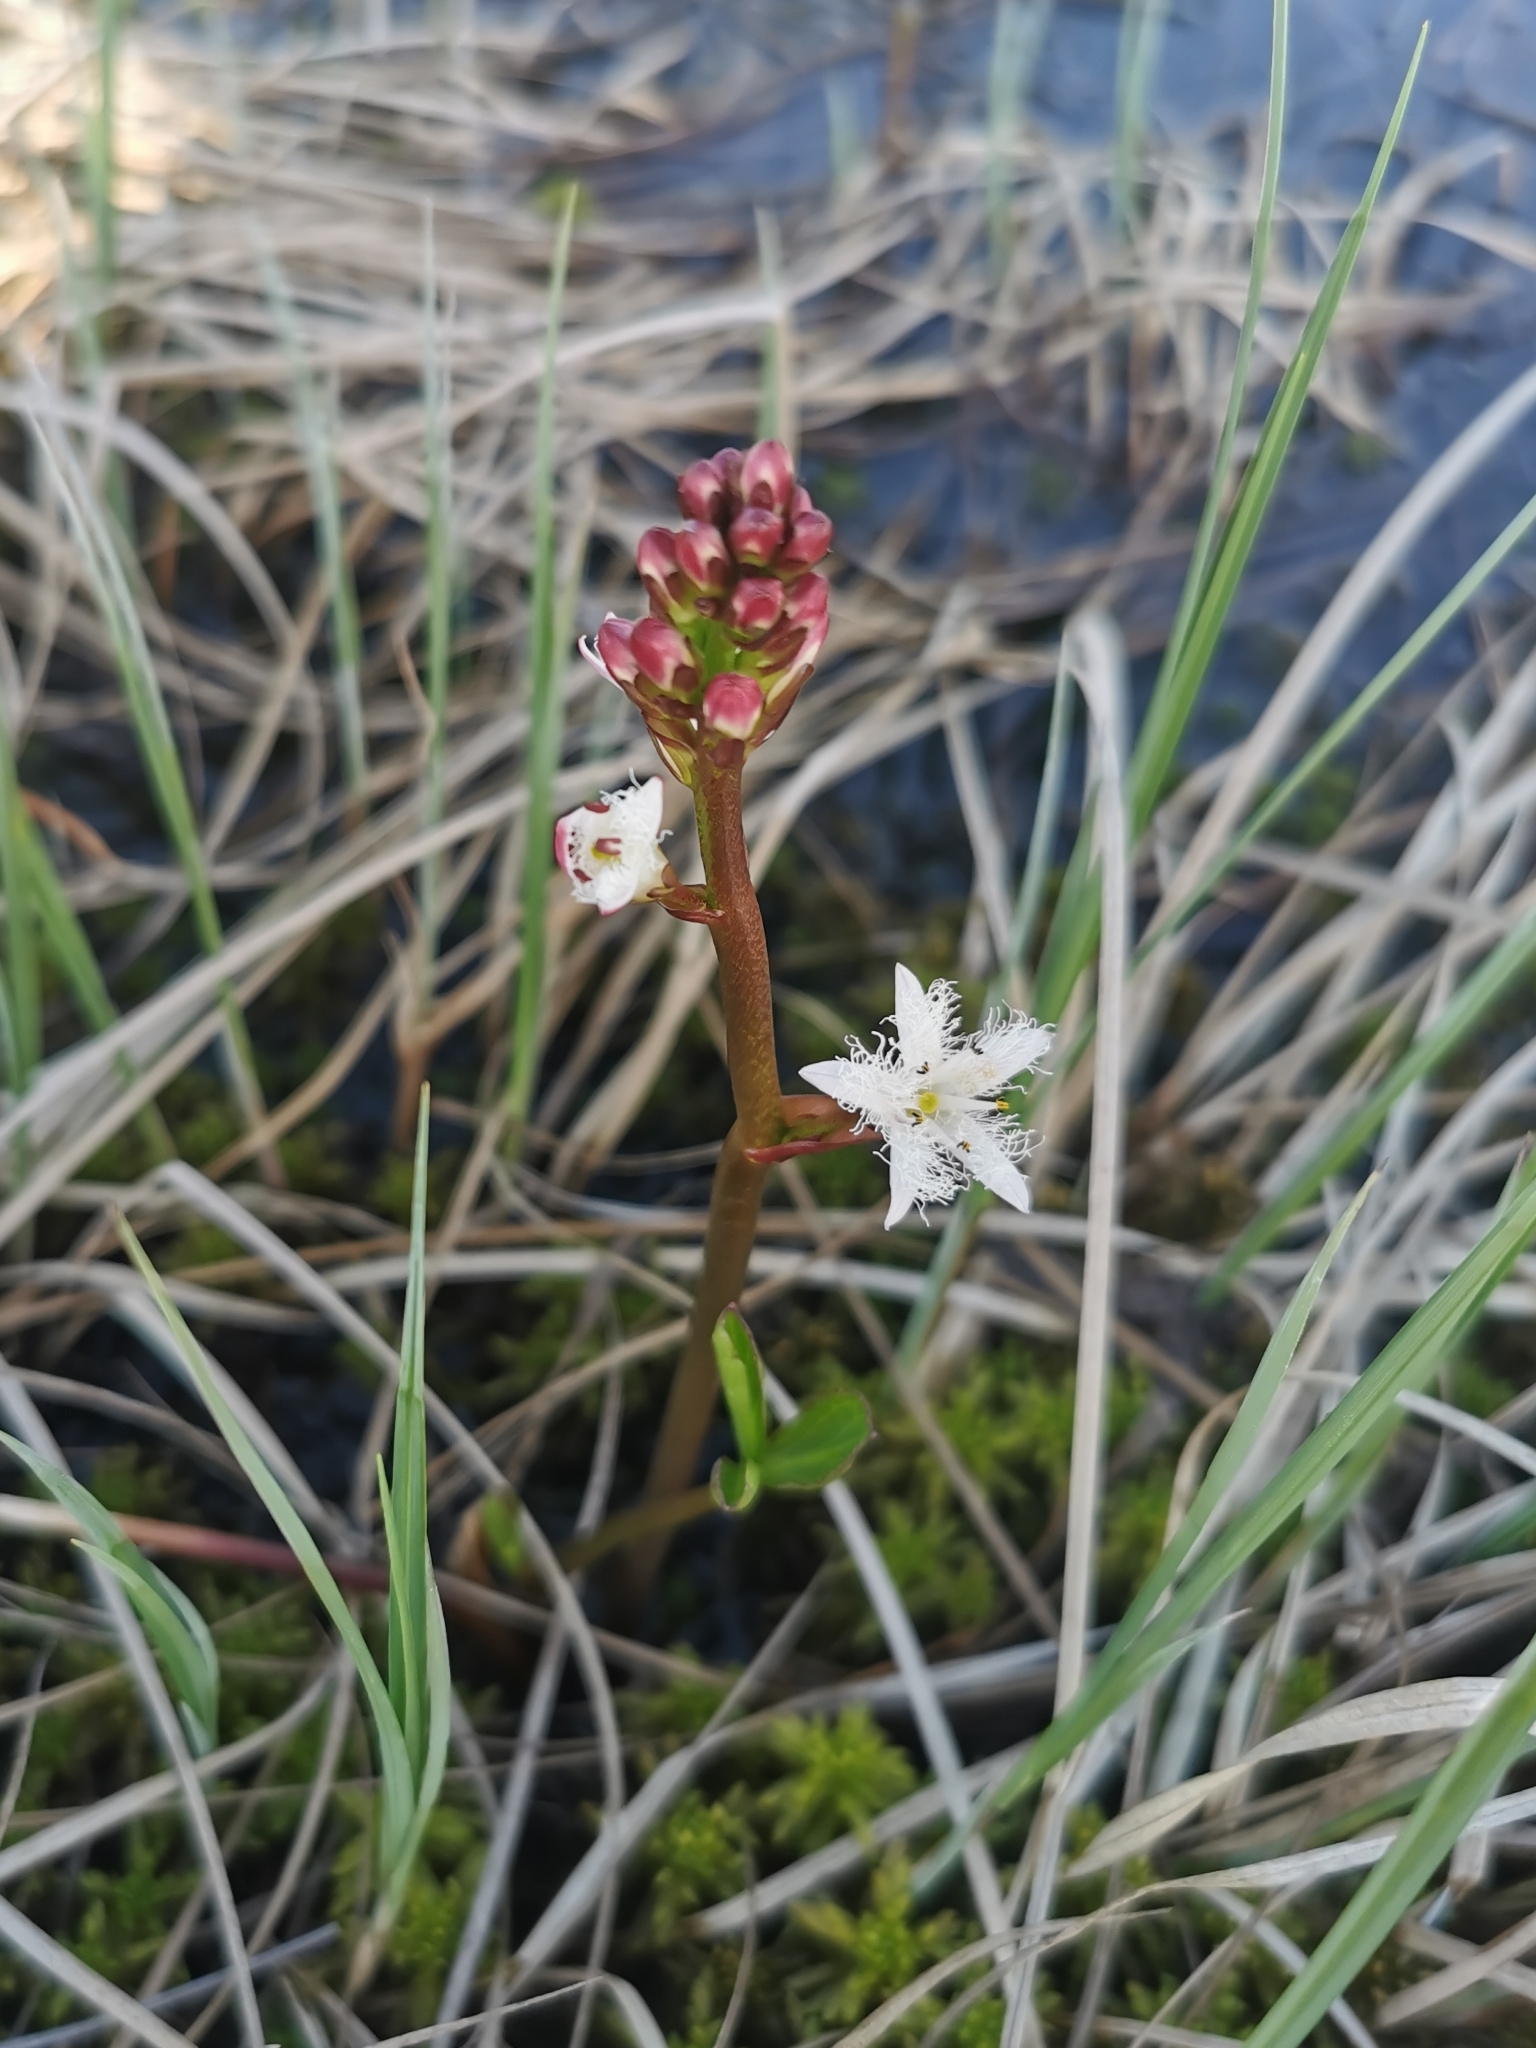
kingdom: Plantae
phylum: Tracheophyta
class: Magnoliopsida
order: Asterales
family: Menyanthaceae
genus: Menyanthes
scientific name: Menyanthes trifoliata
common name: Bogbean
